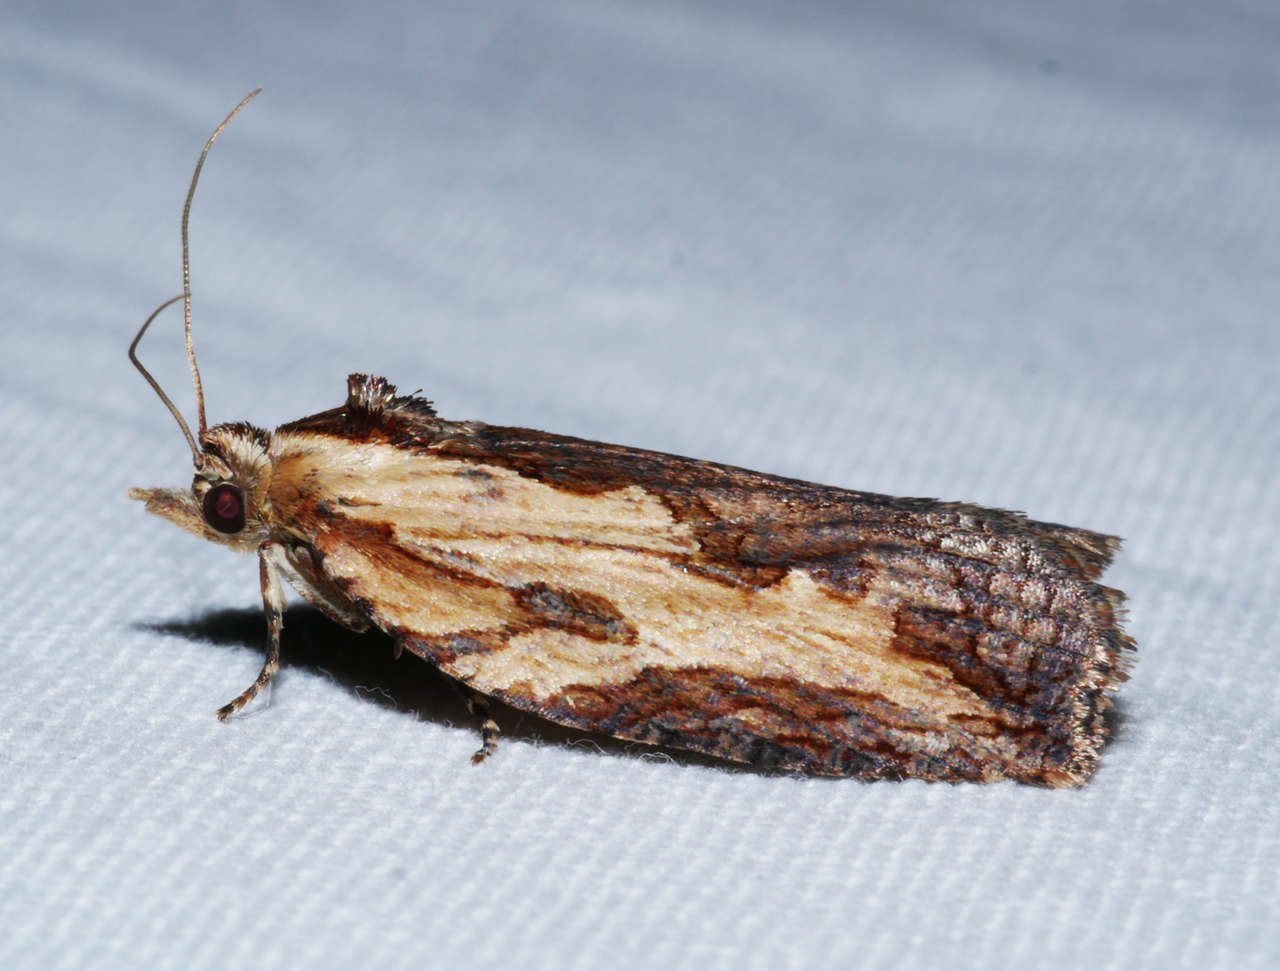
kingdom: Animalia
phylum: Arthropoda
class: Insecta
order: Lepidoptera
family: Tortricidae
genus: Cryptoptila
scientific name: Cryptoptila immersana
